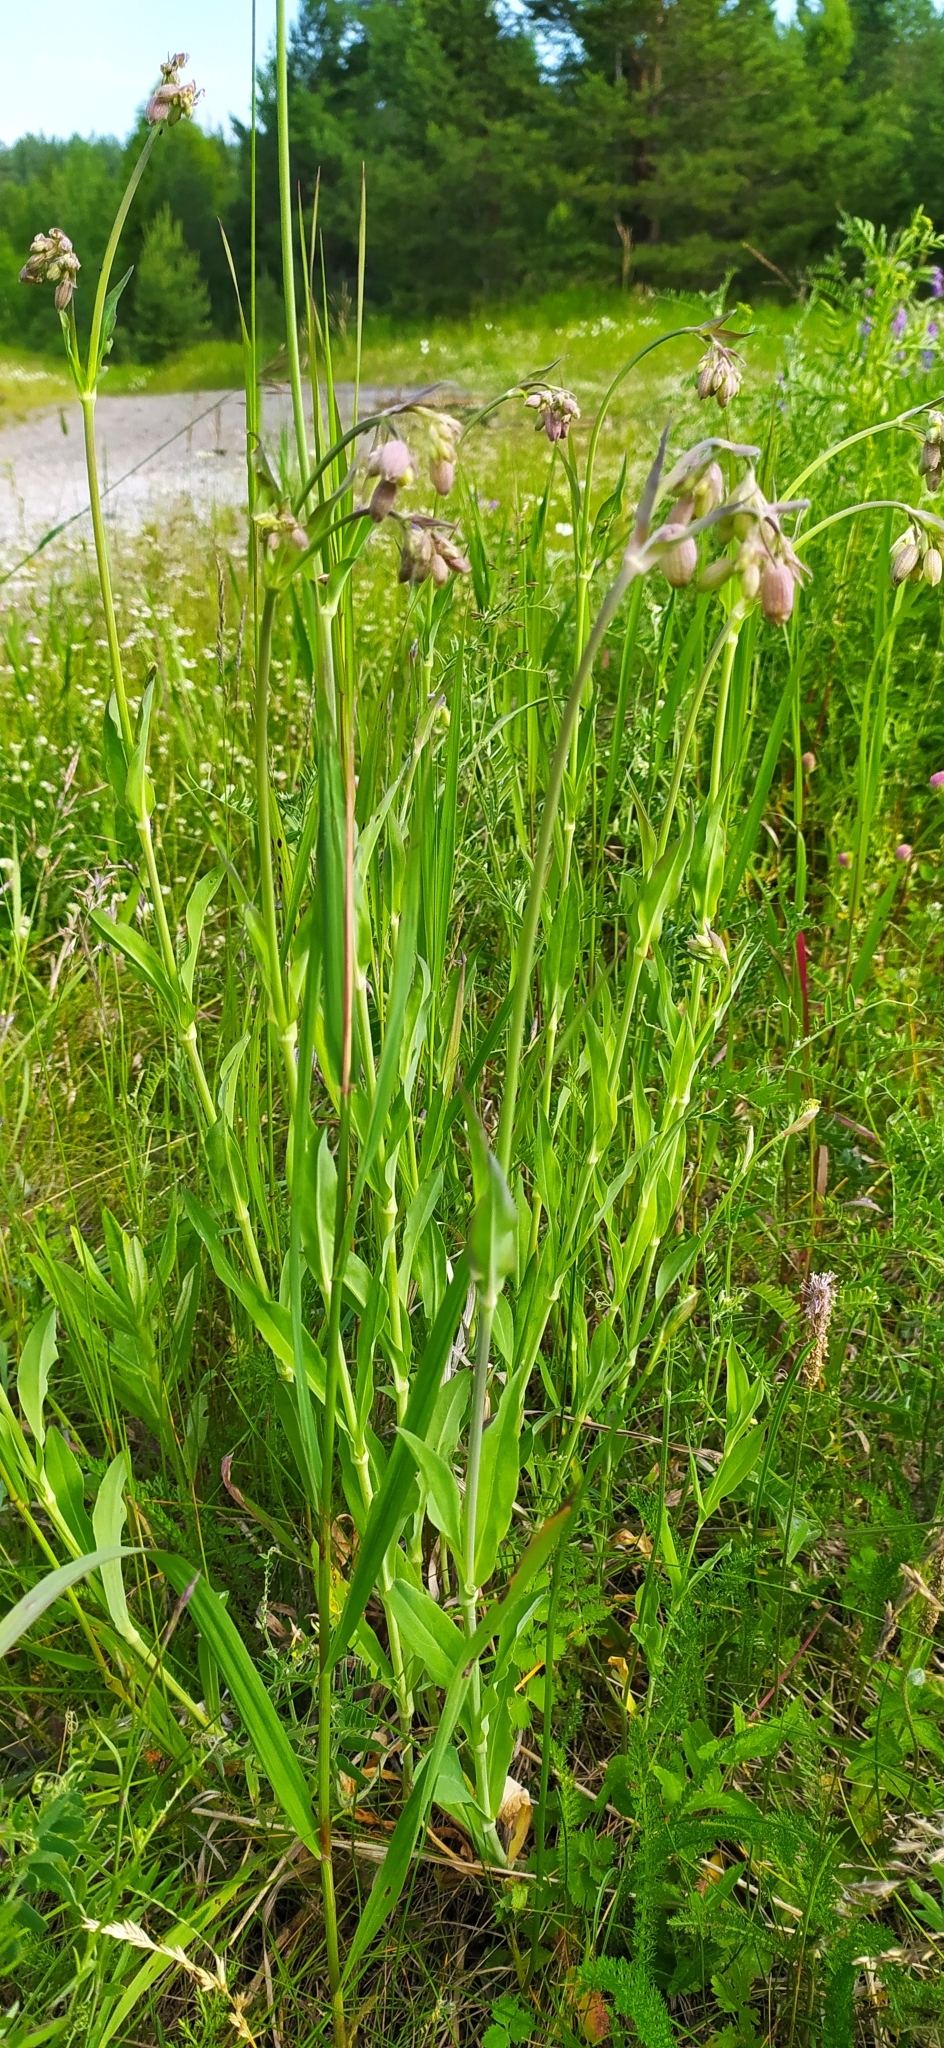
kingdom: Plantae
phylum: Tracheophyta
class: Magnoliopsida
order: Caryophyllales
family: Caryophyllaceae
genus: Silene
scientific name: Silene vulgaris
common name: Bladder campion
